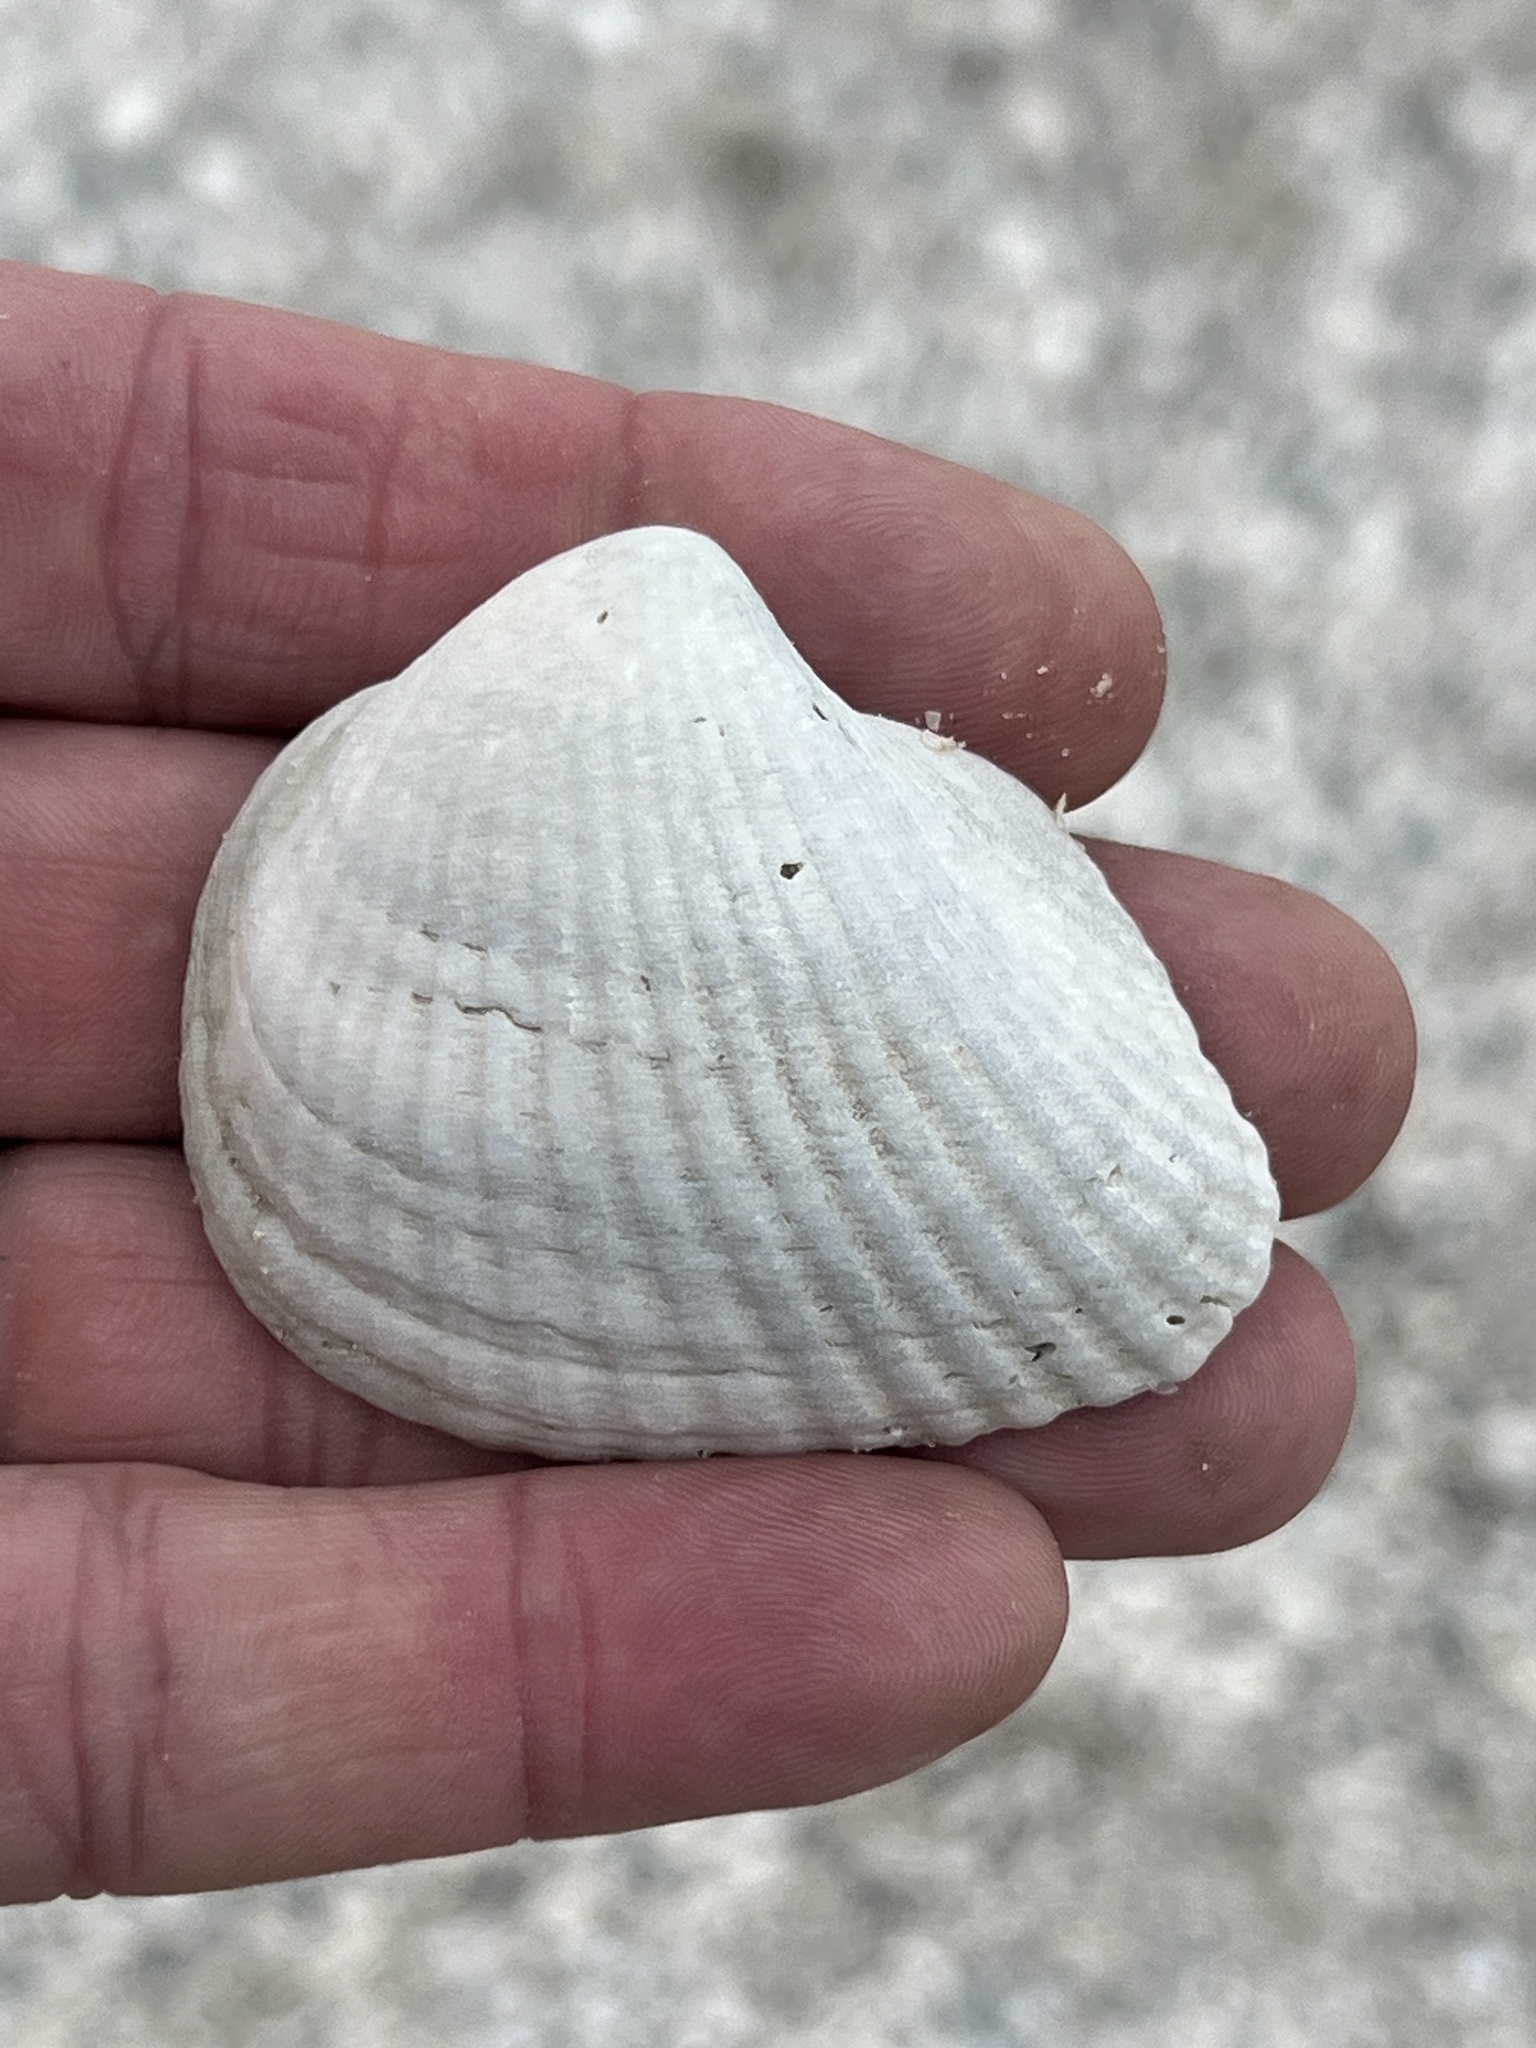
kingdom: Animalia
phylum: Mollusca
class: Bivalvia
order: Arcida
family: Noetiidae
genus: Noetia
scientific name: Noetia ponderosa
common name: Ponderous ark
